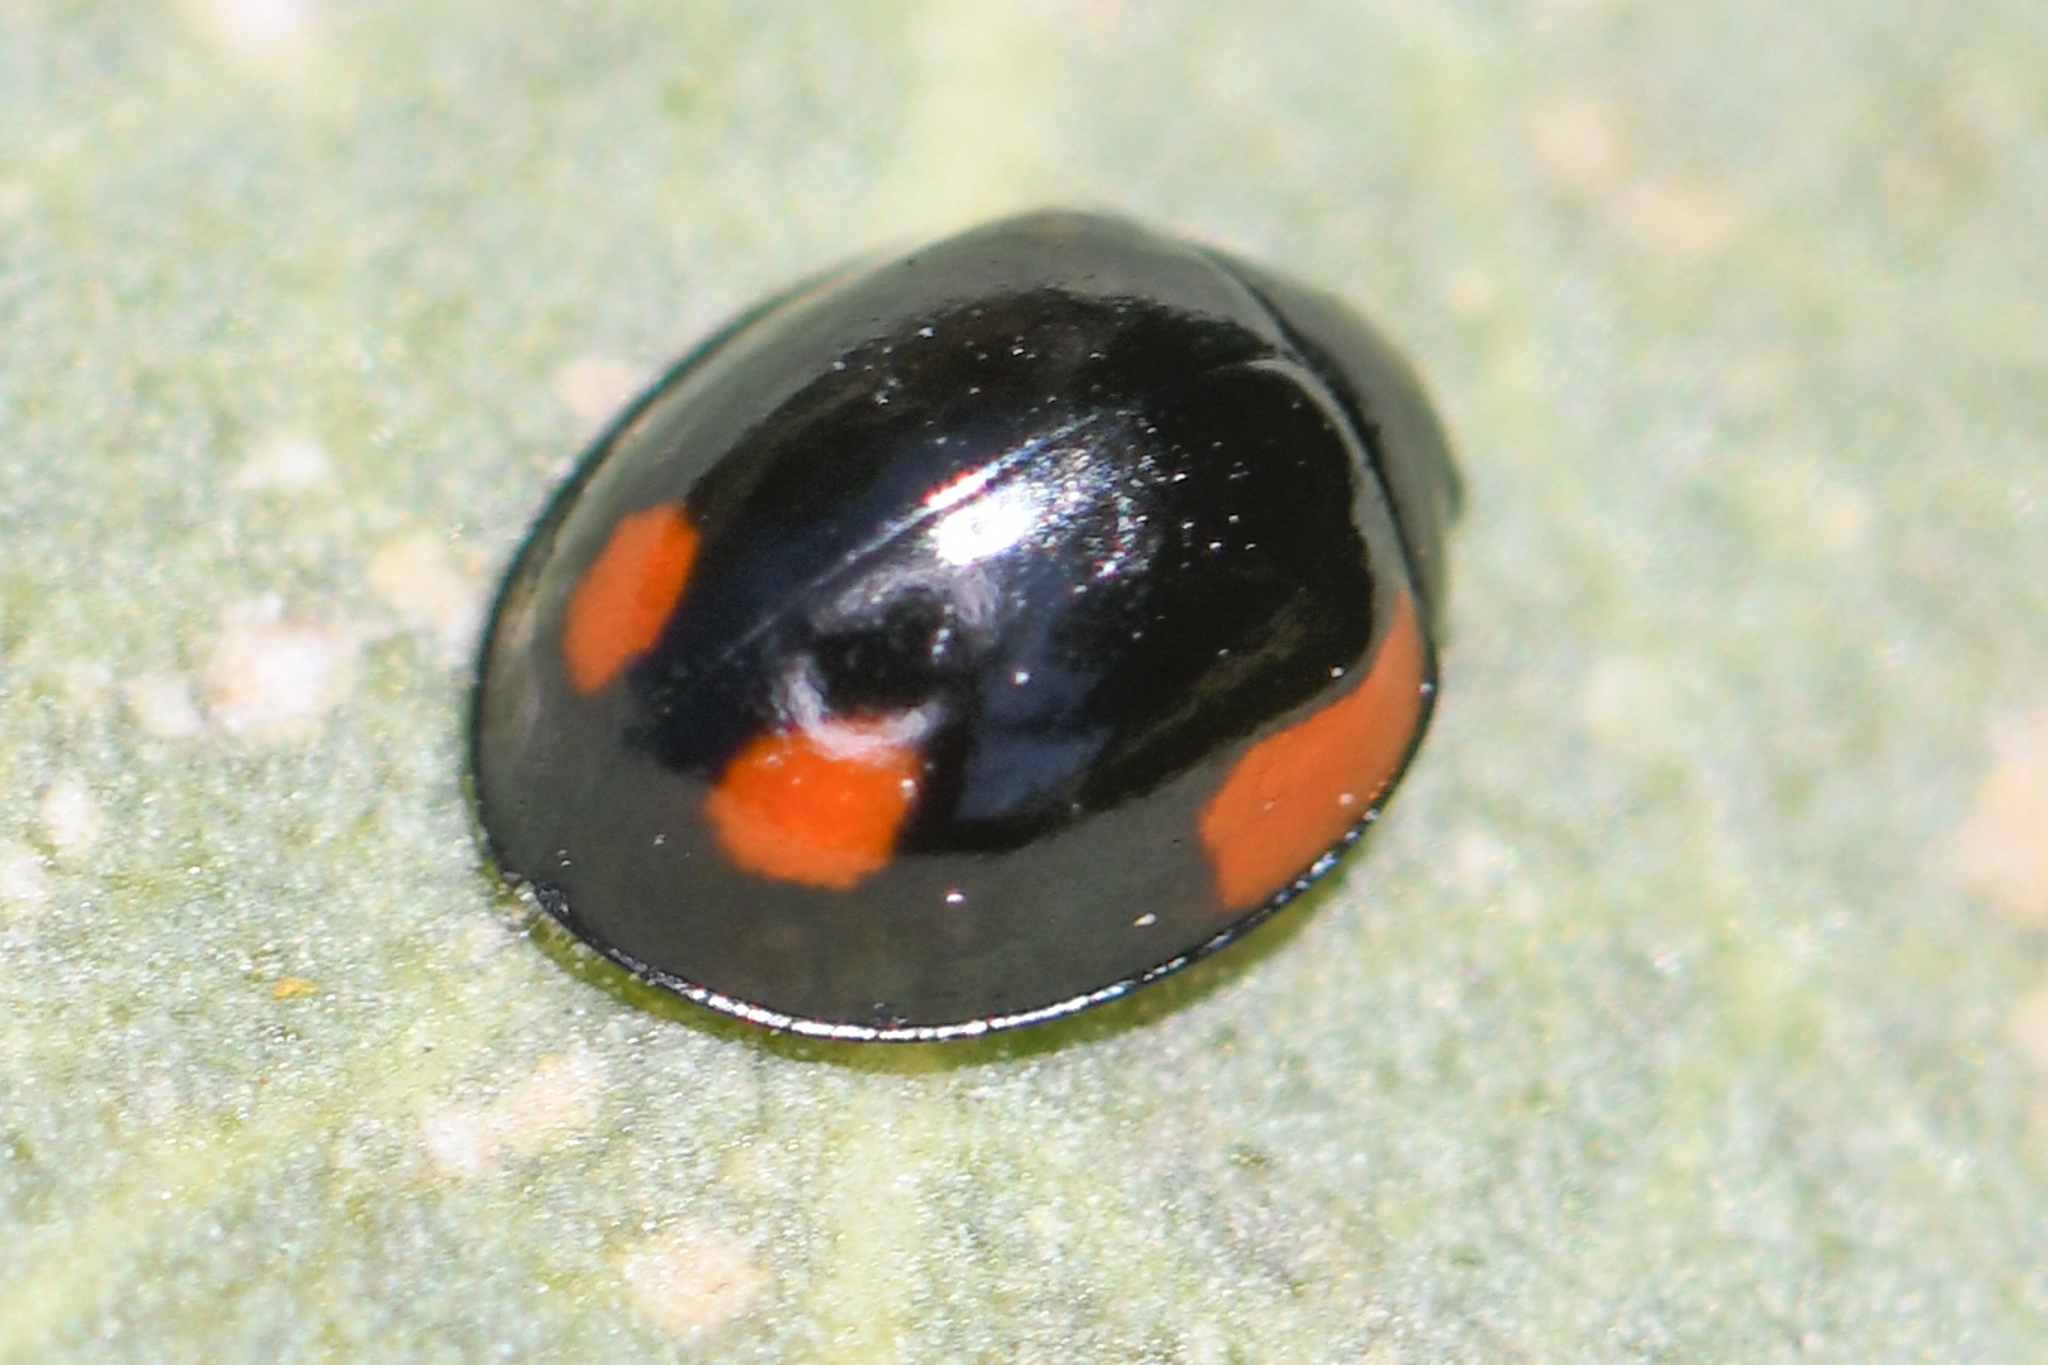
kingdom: Animalia
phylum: Arthropoda
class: Insecta
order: Coleoptera
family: Coccinellidae
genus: Exochomus
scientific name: Exochomus californicus
